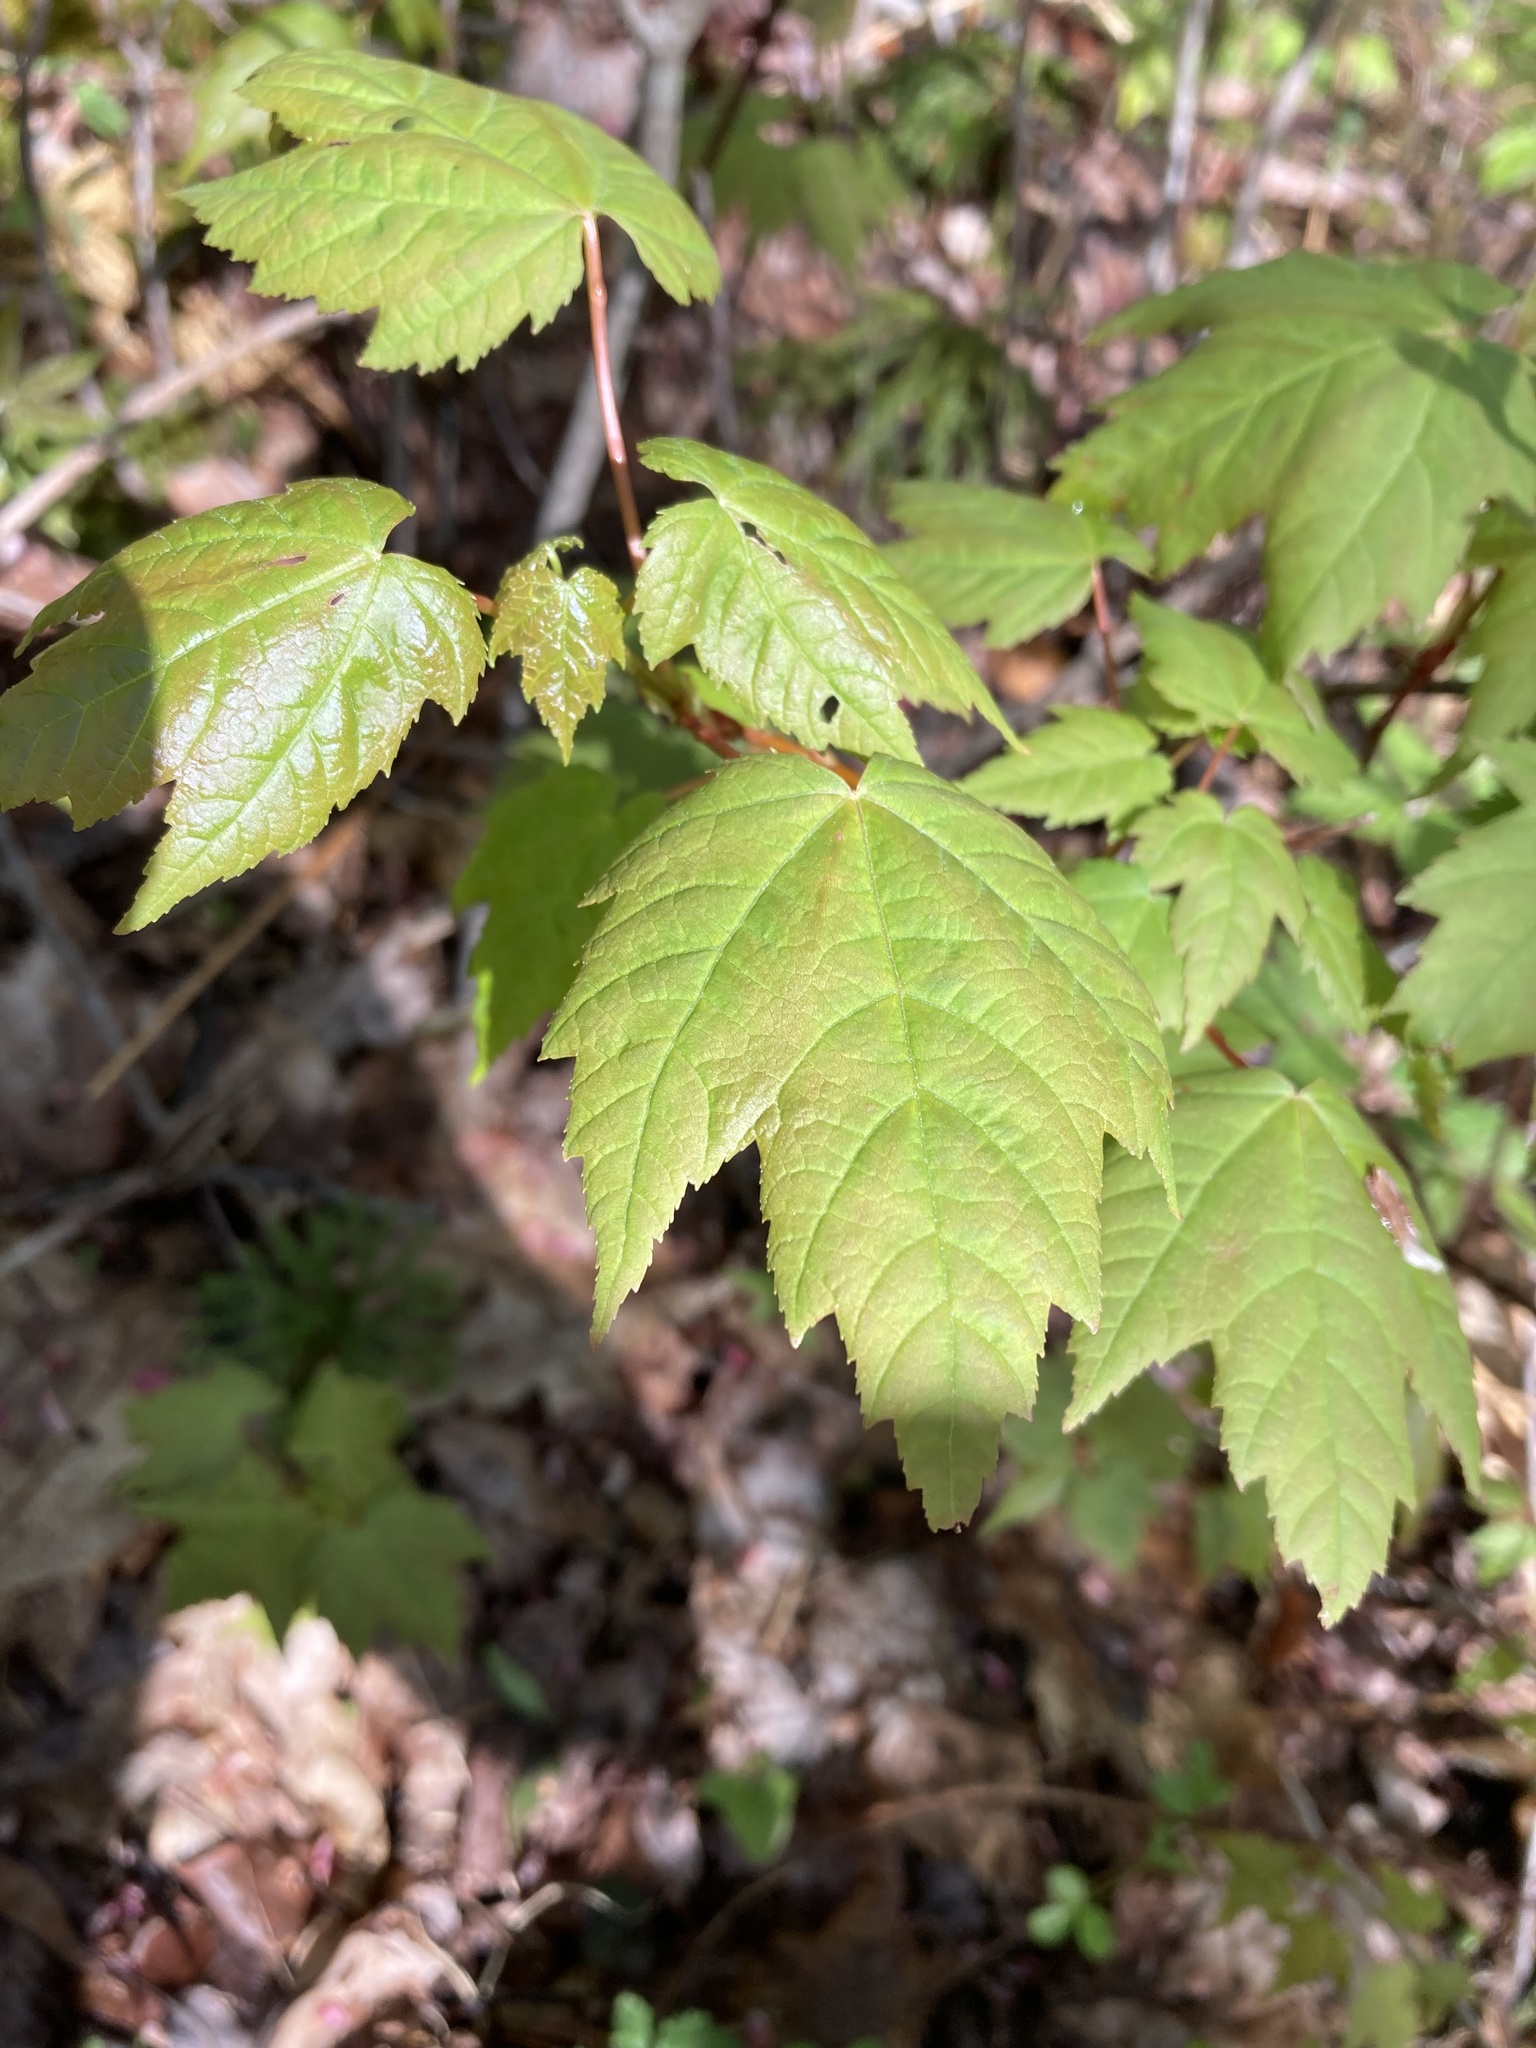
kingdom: Plantae
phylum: Tracheophyta
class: Magnoliopsida
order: Sapindales
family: Sapindaceae
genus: Acer
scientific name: Acer rubrum
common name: Red maple
